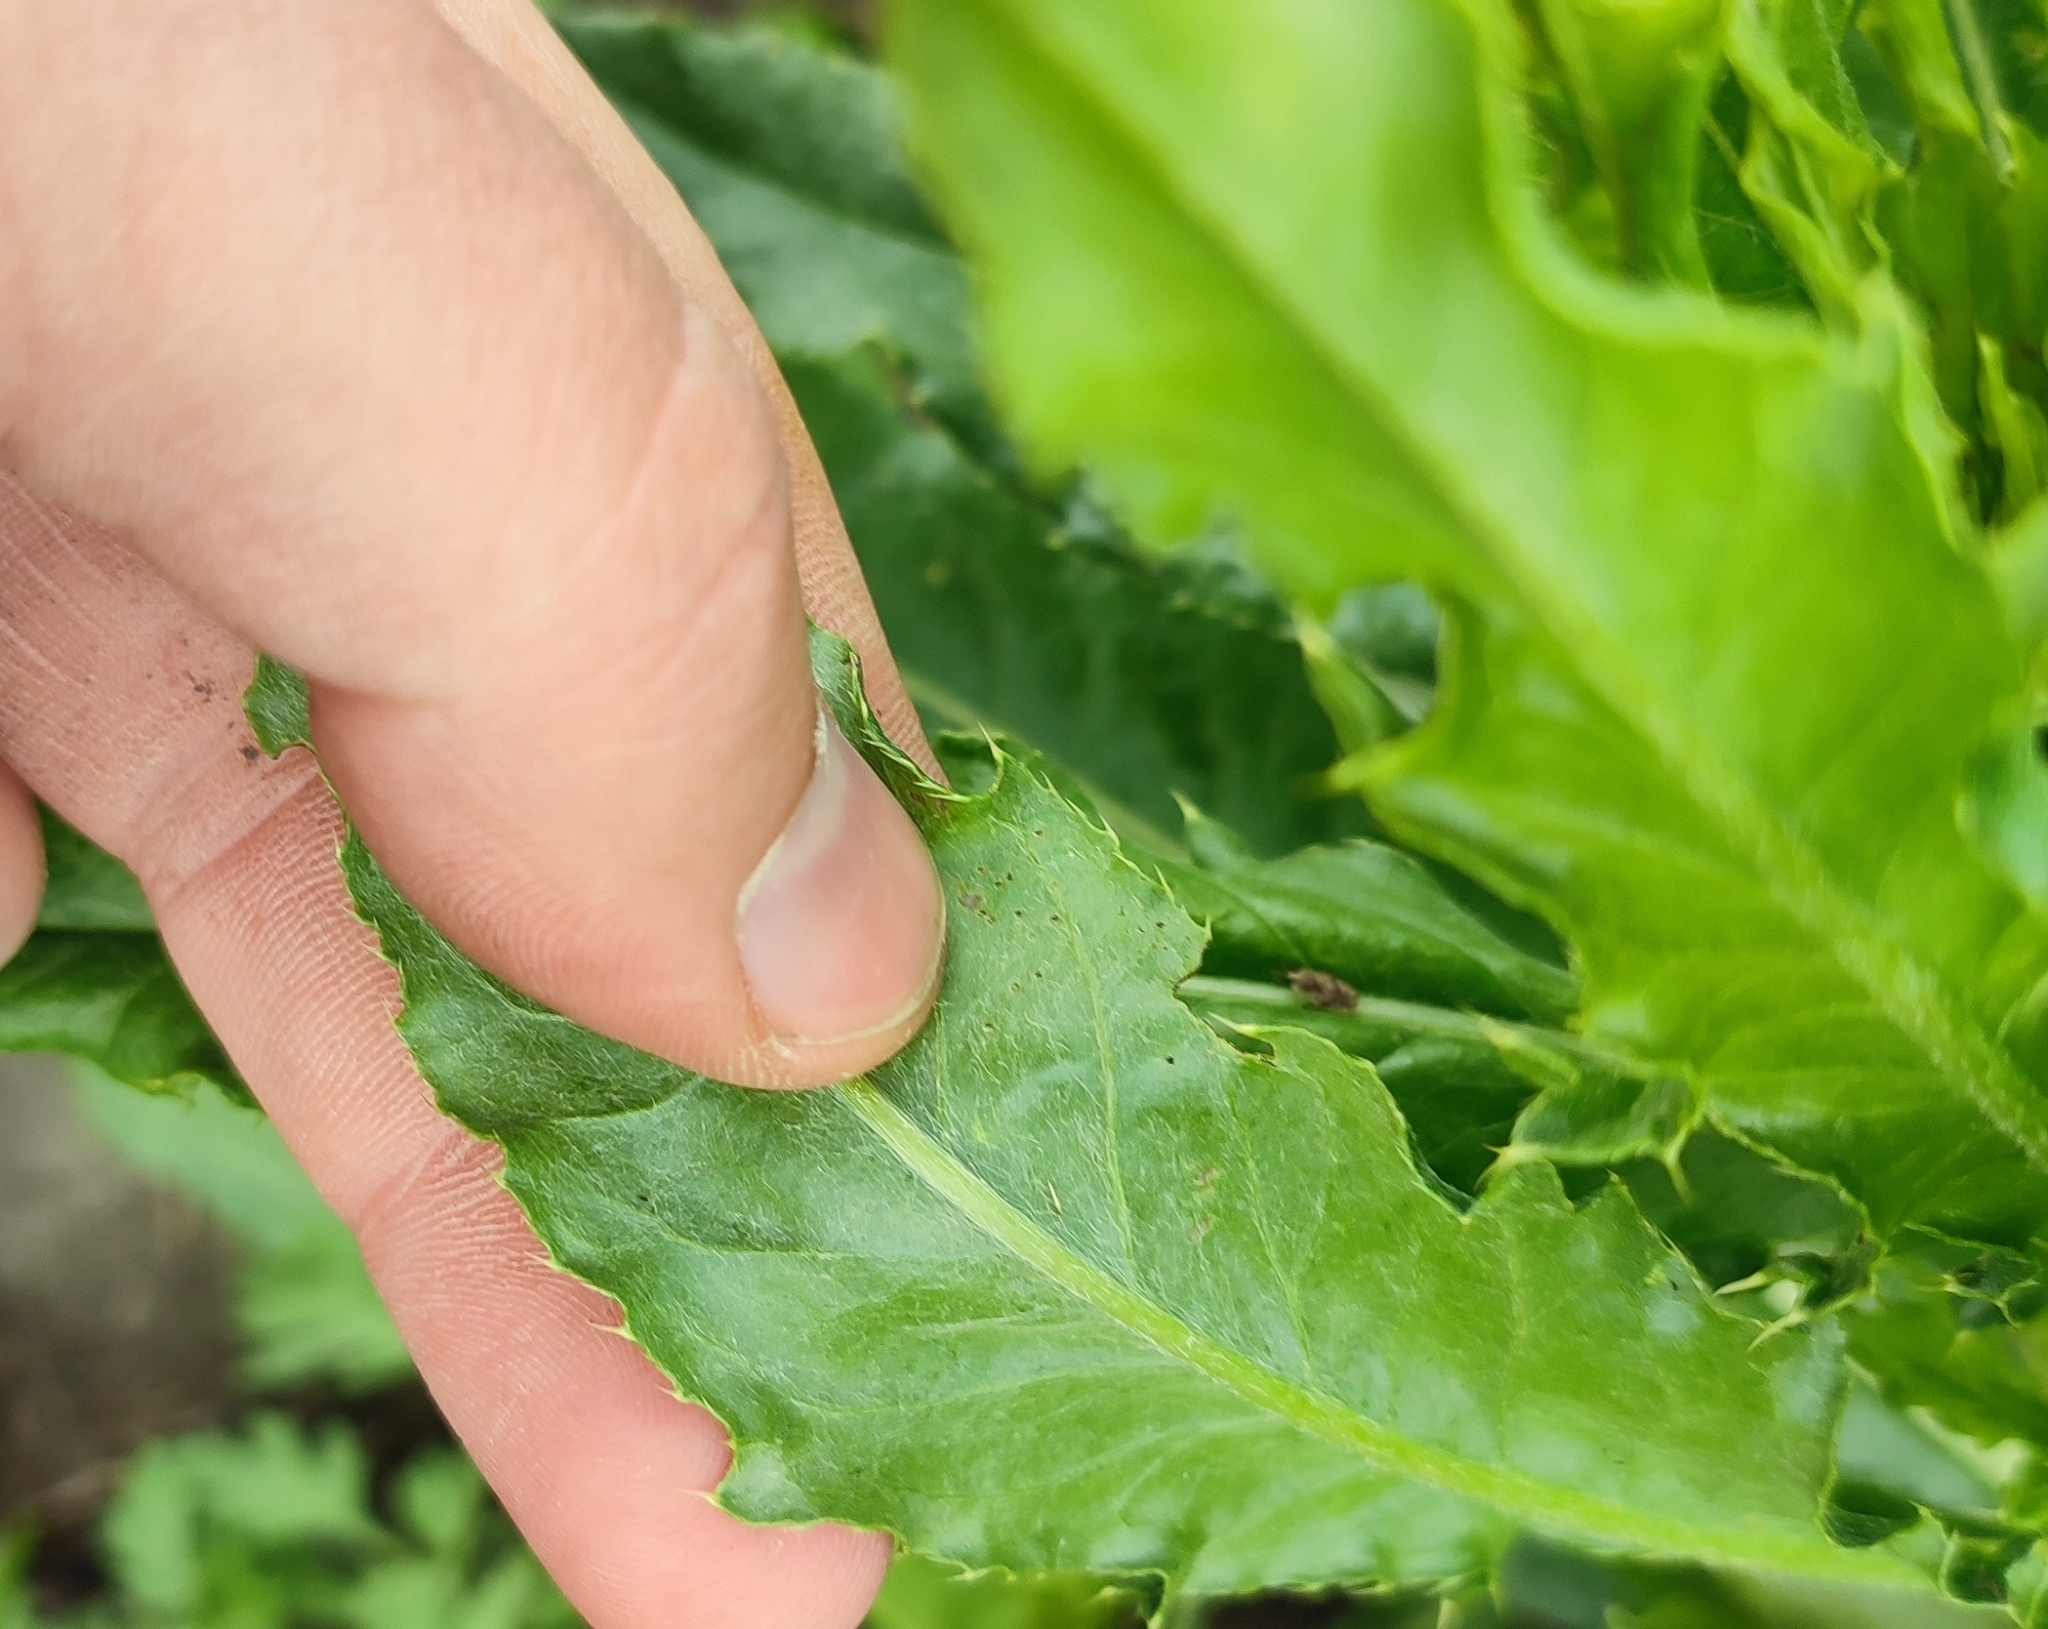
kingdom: Plantae
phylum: Tracheophyta
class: Magnoliopsida
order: Asterales
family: Asteraceae
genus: Cirsium
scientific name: Cirsium arvense
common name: Creeping thistle
